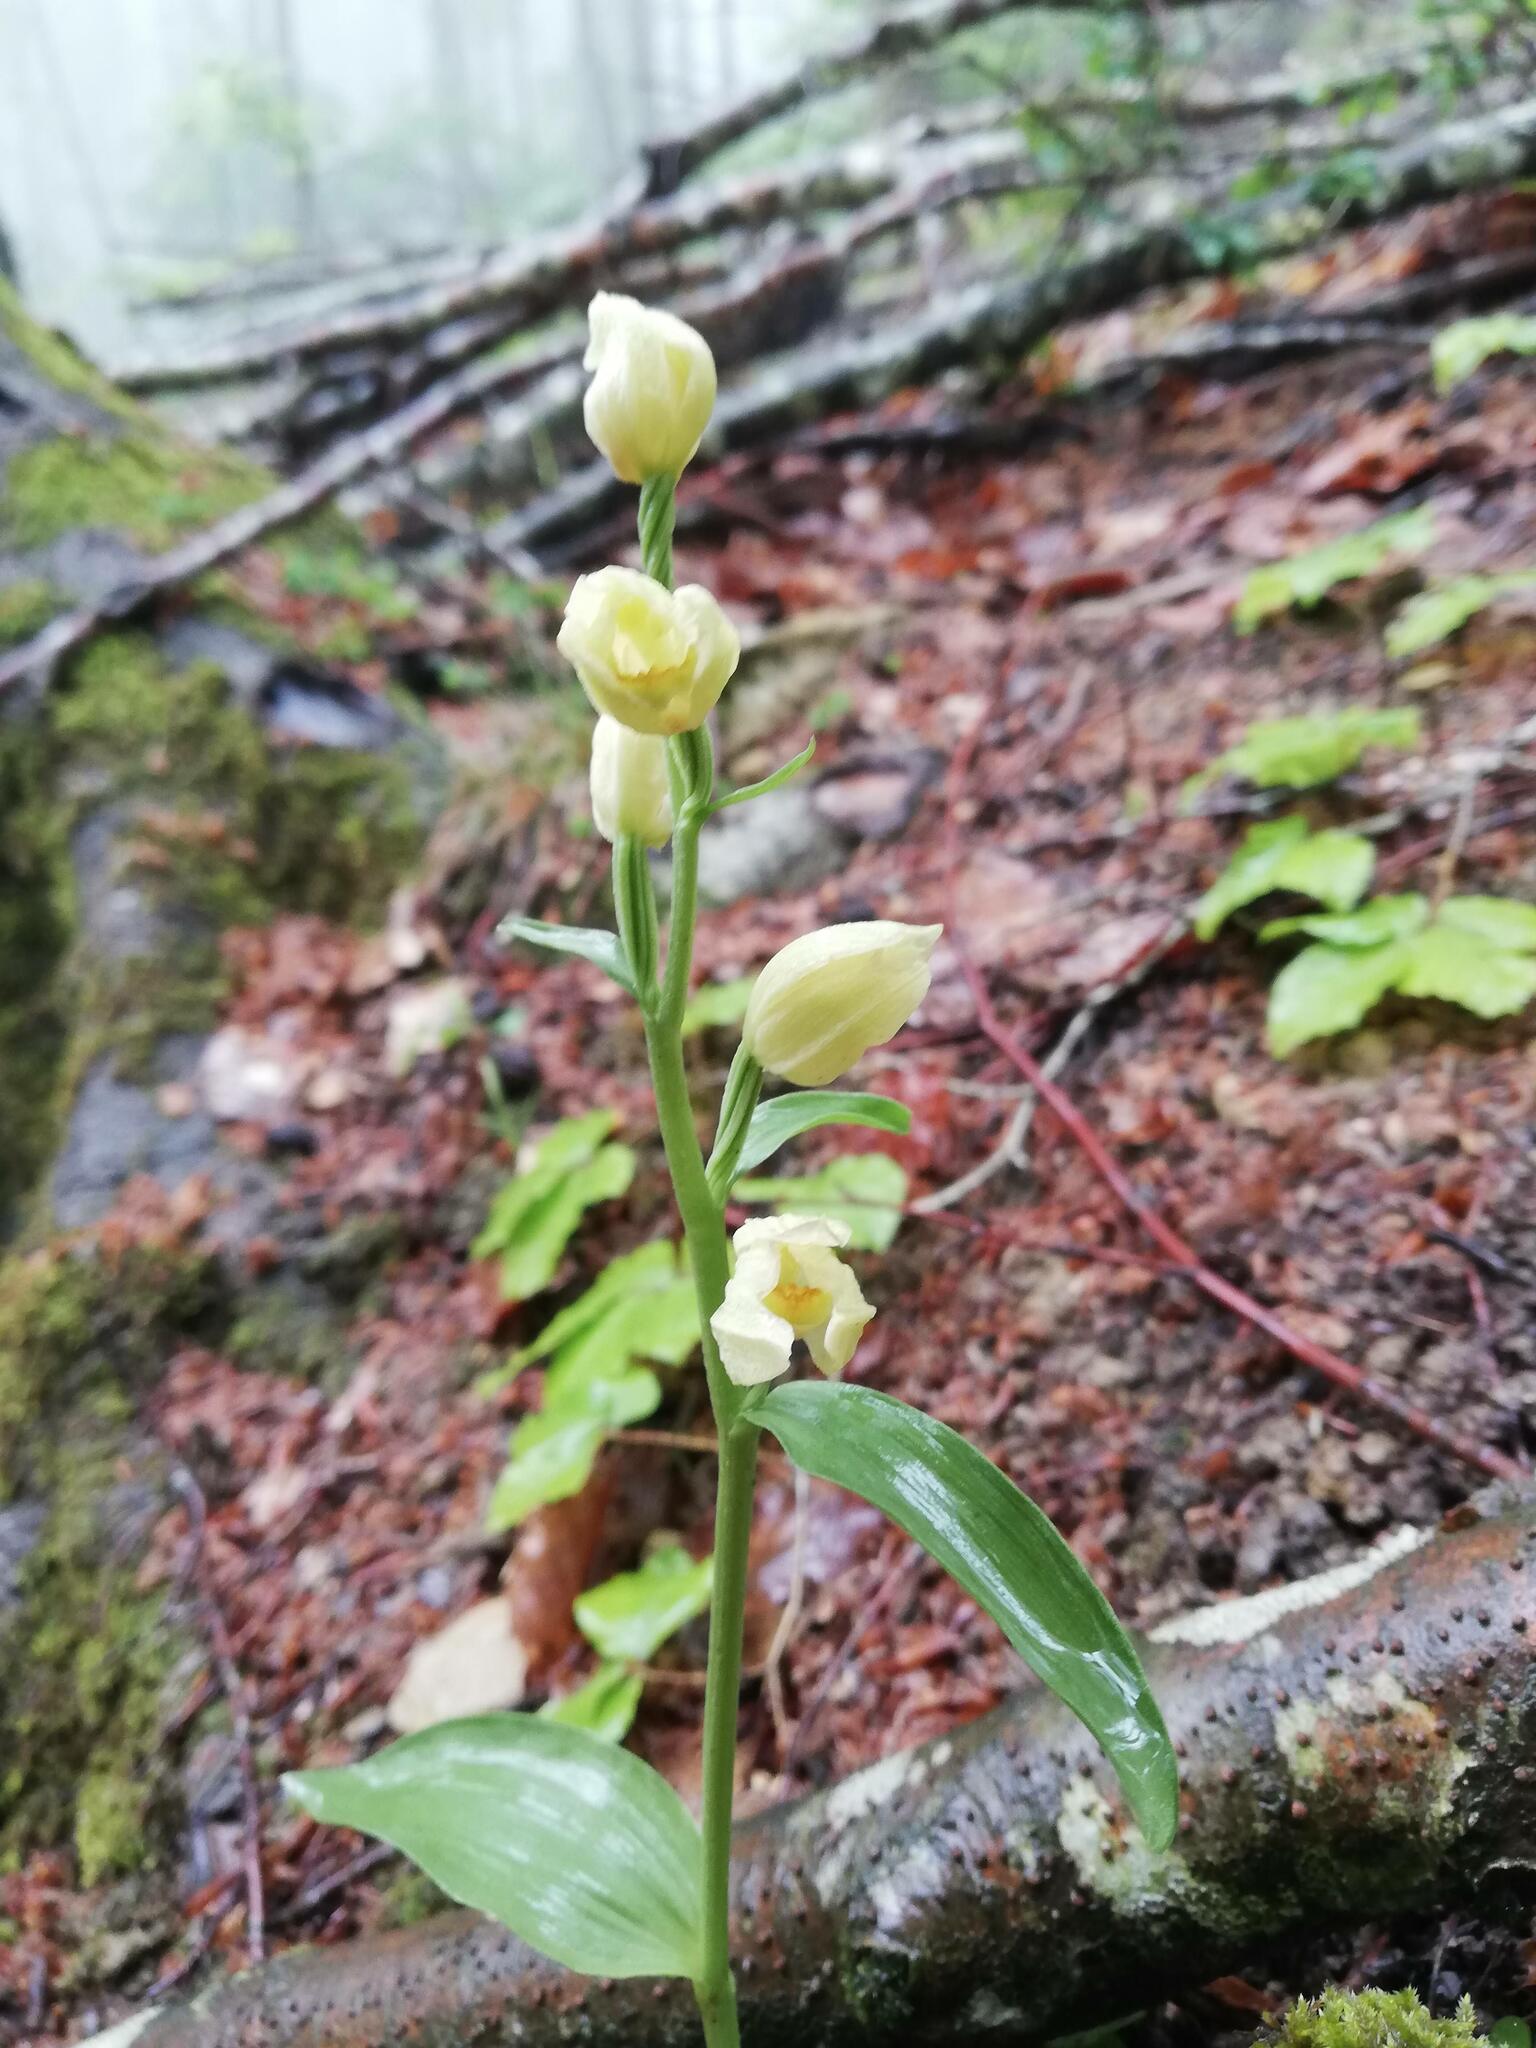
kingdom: Plantae
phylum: Tracheophyta
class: Liliopsida
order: Asparagales
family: Orchidaceae
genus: Cephalanthera
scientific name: Cephalanthera damasonium
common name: White helleborine
